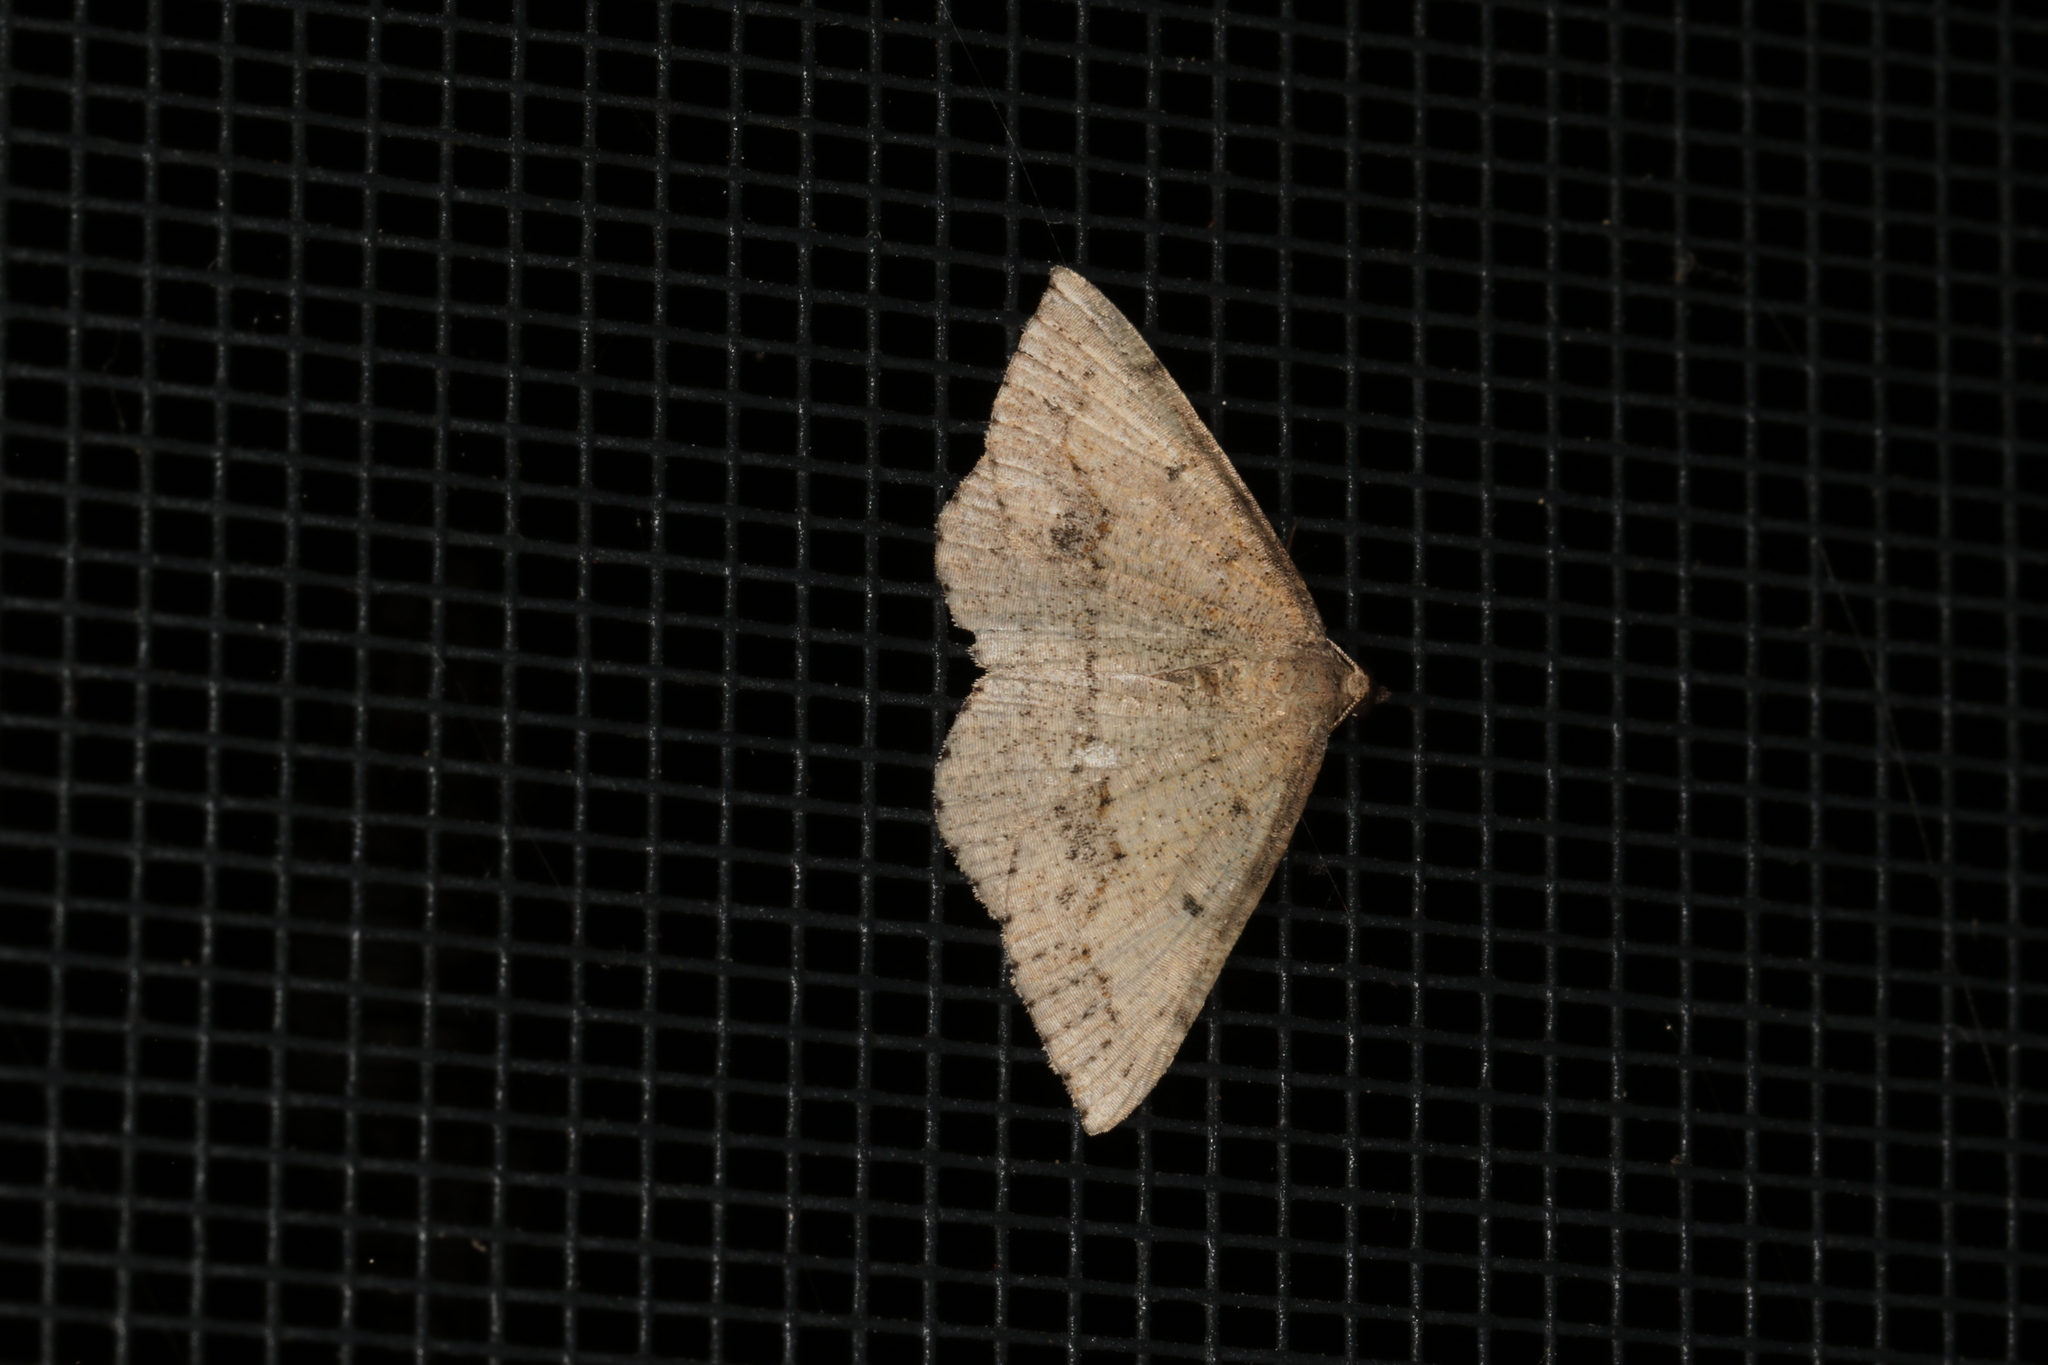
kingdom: Animalia
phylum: Arthropoda
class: Insecta
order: Lepidoptera
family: Geometridae
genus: Taxeotis
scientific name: Taxeotis intextata
